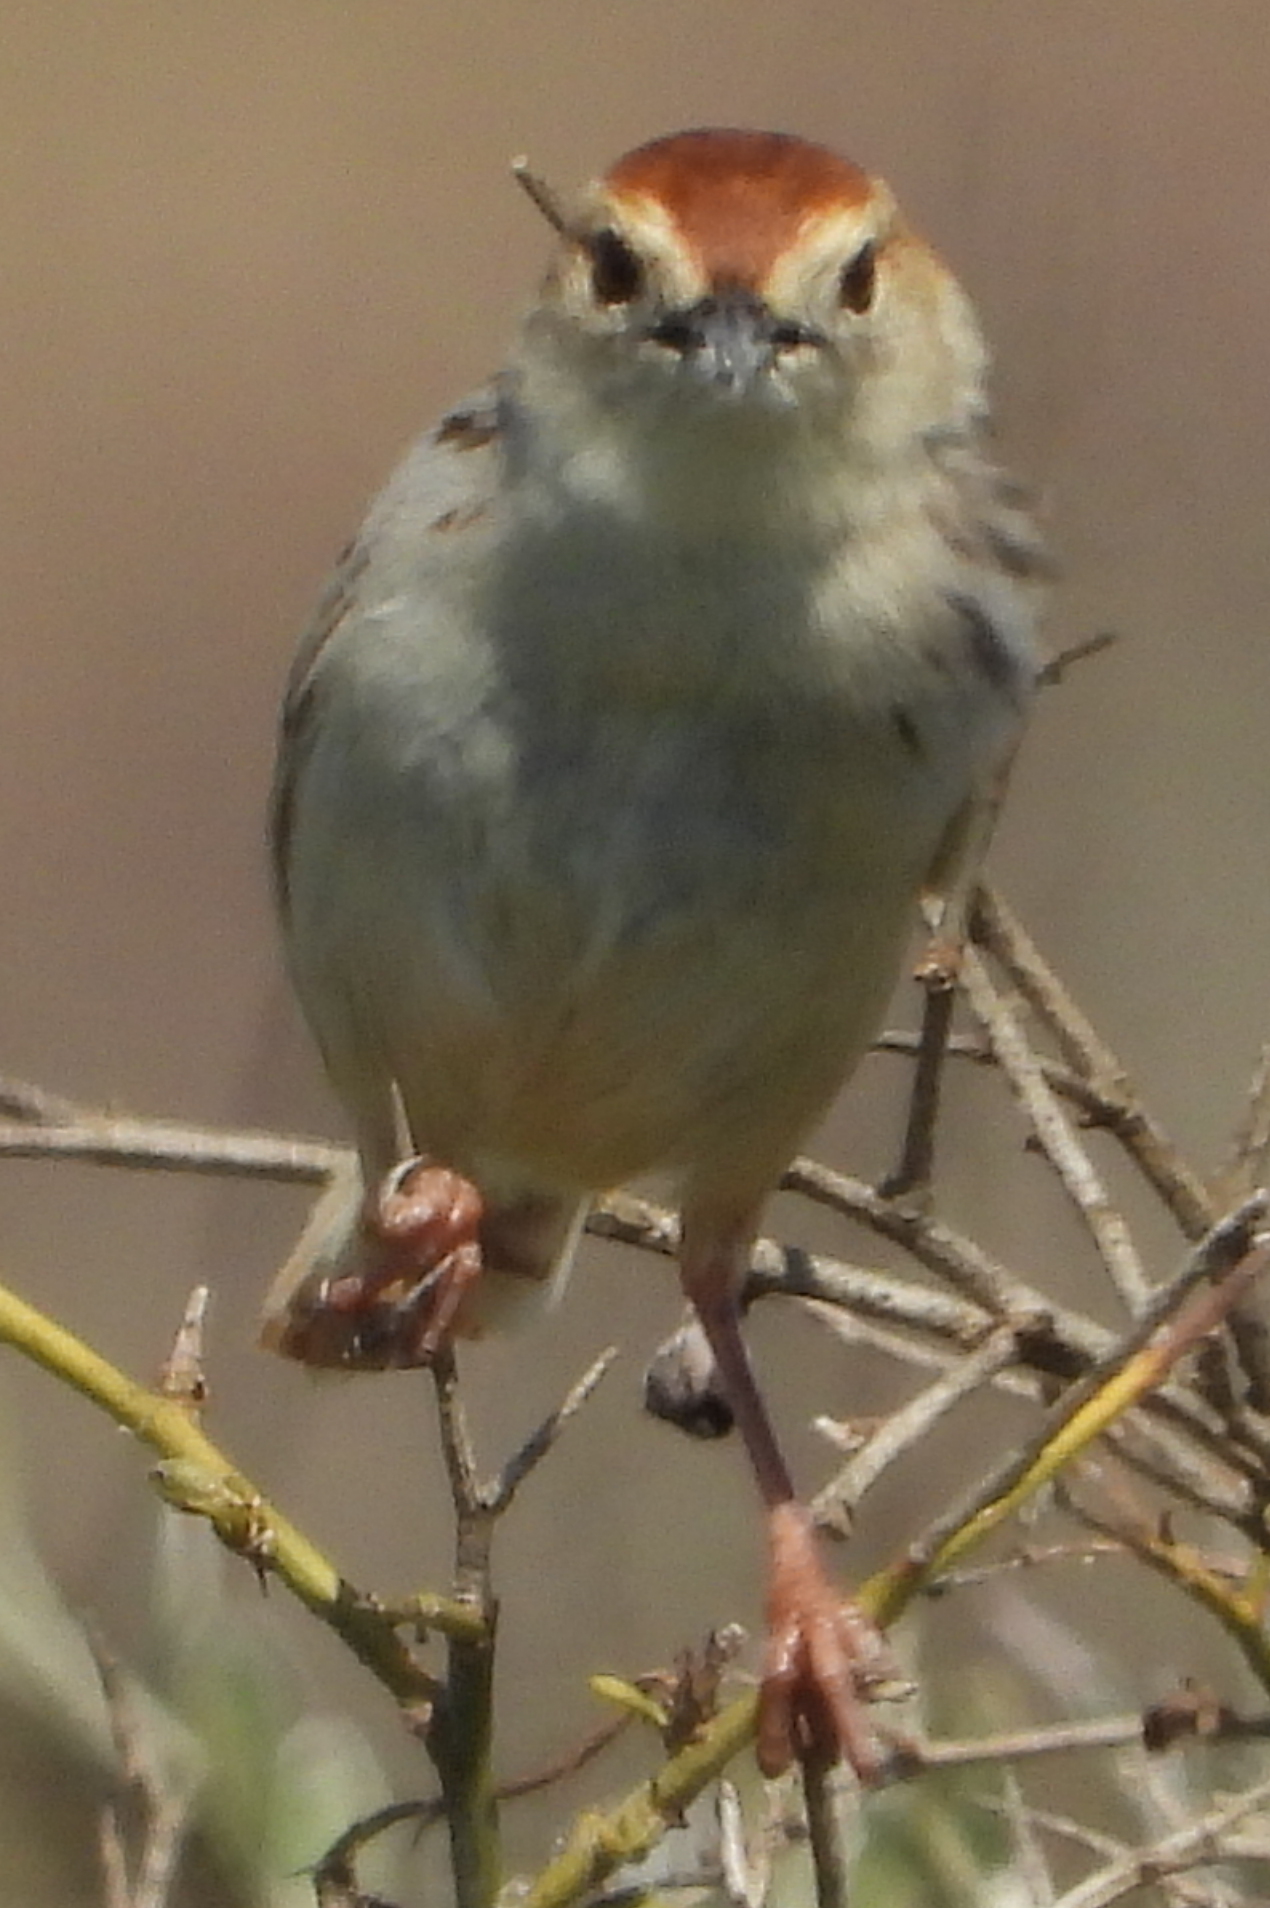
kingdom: Animalia
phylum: Chordata
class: Aves
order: Passeriformes
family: Cisticolidae
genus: Cisticola
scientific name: Cisticola tinniens
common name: Levaillant's cisticola
